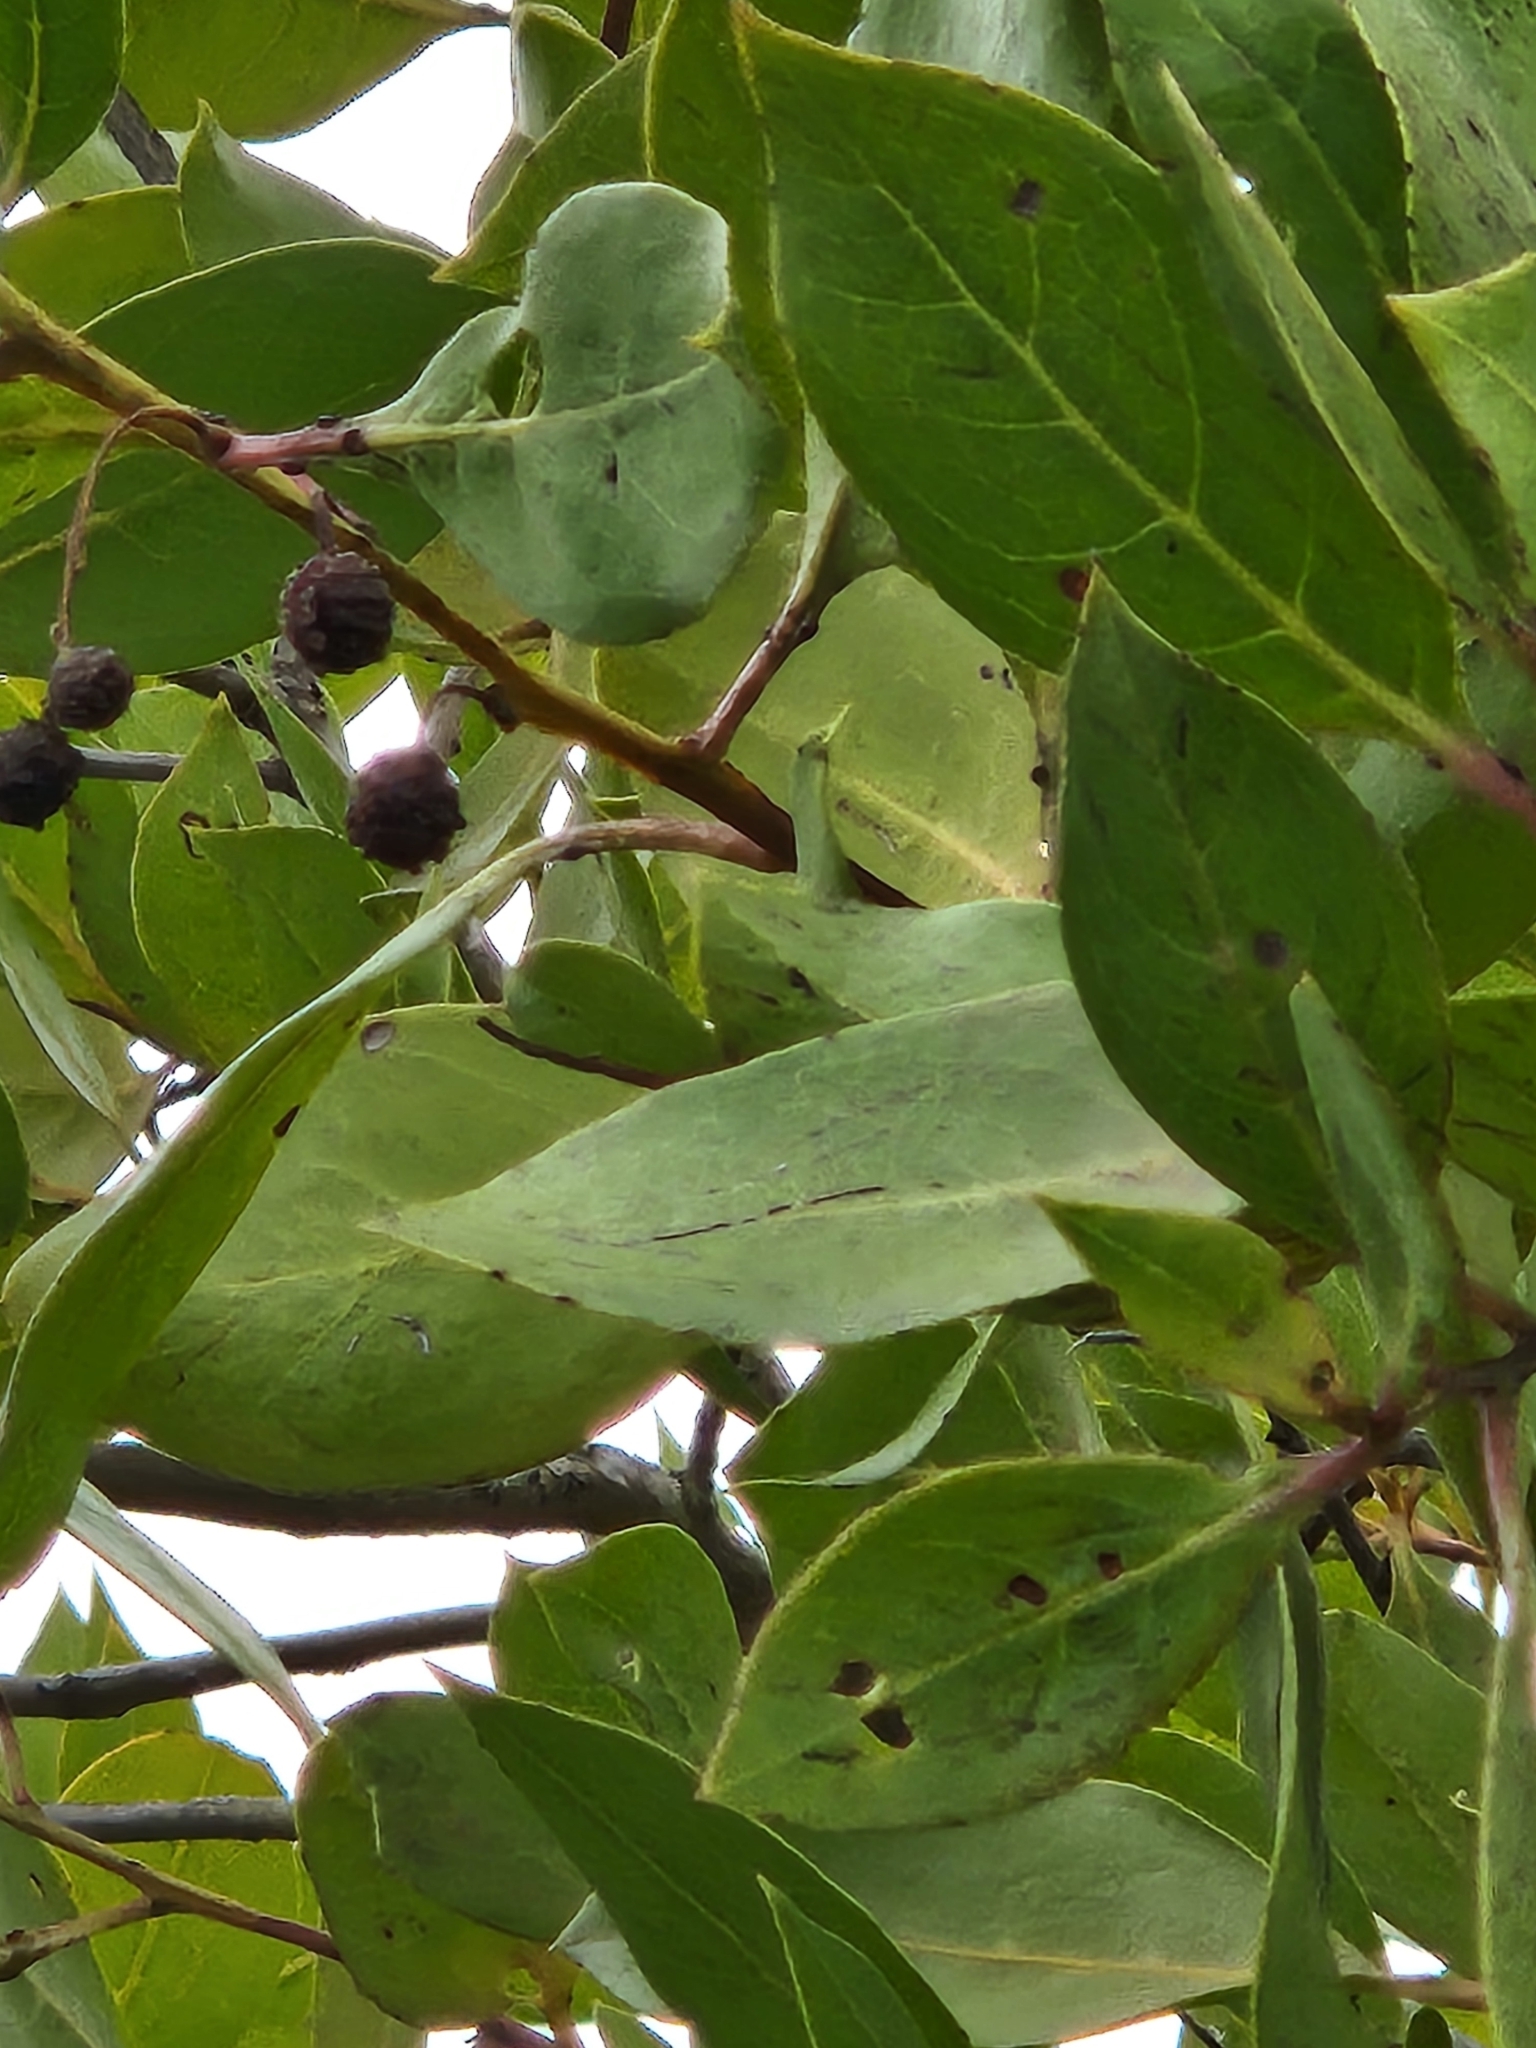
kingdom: Plantae
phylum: Tracheophyta
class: Magnoliopsida
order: Myrtales
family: Combretaceae
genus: Conocarpus
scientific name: Conocarpus erectus
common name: Button mangrove
